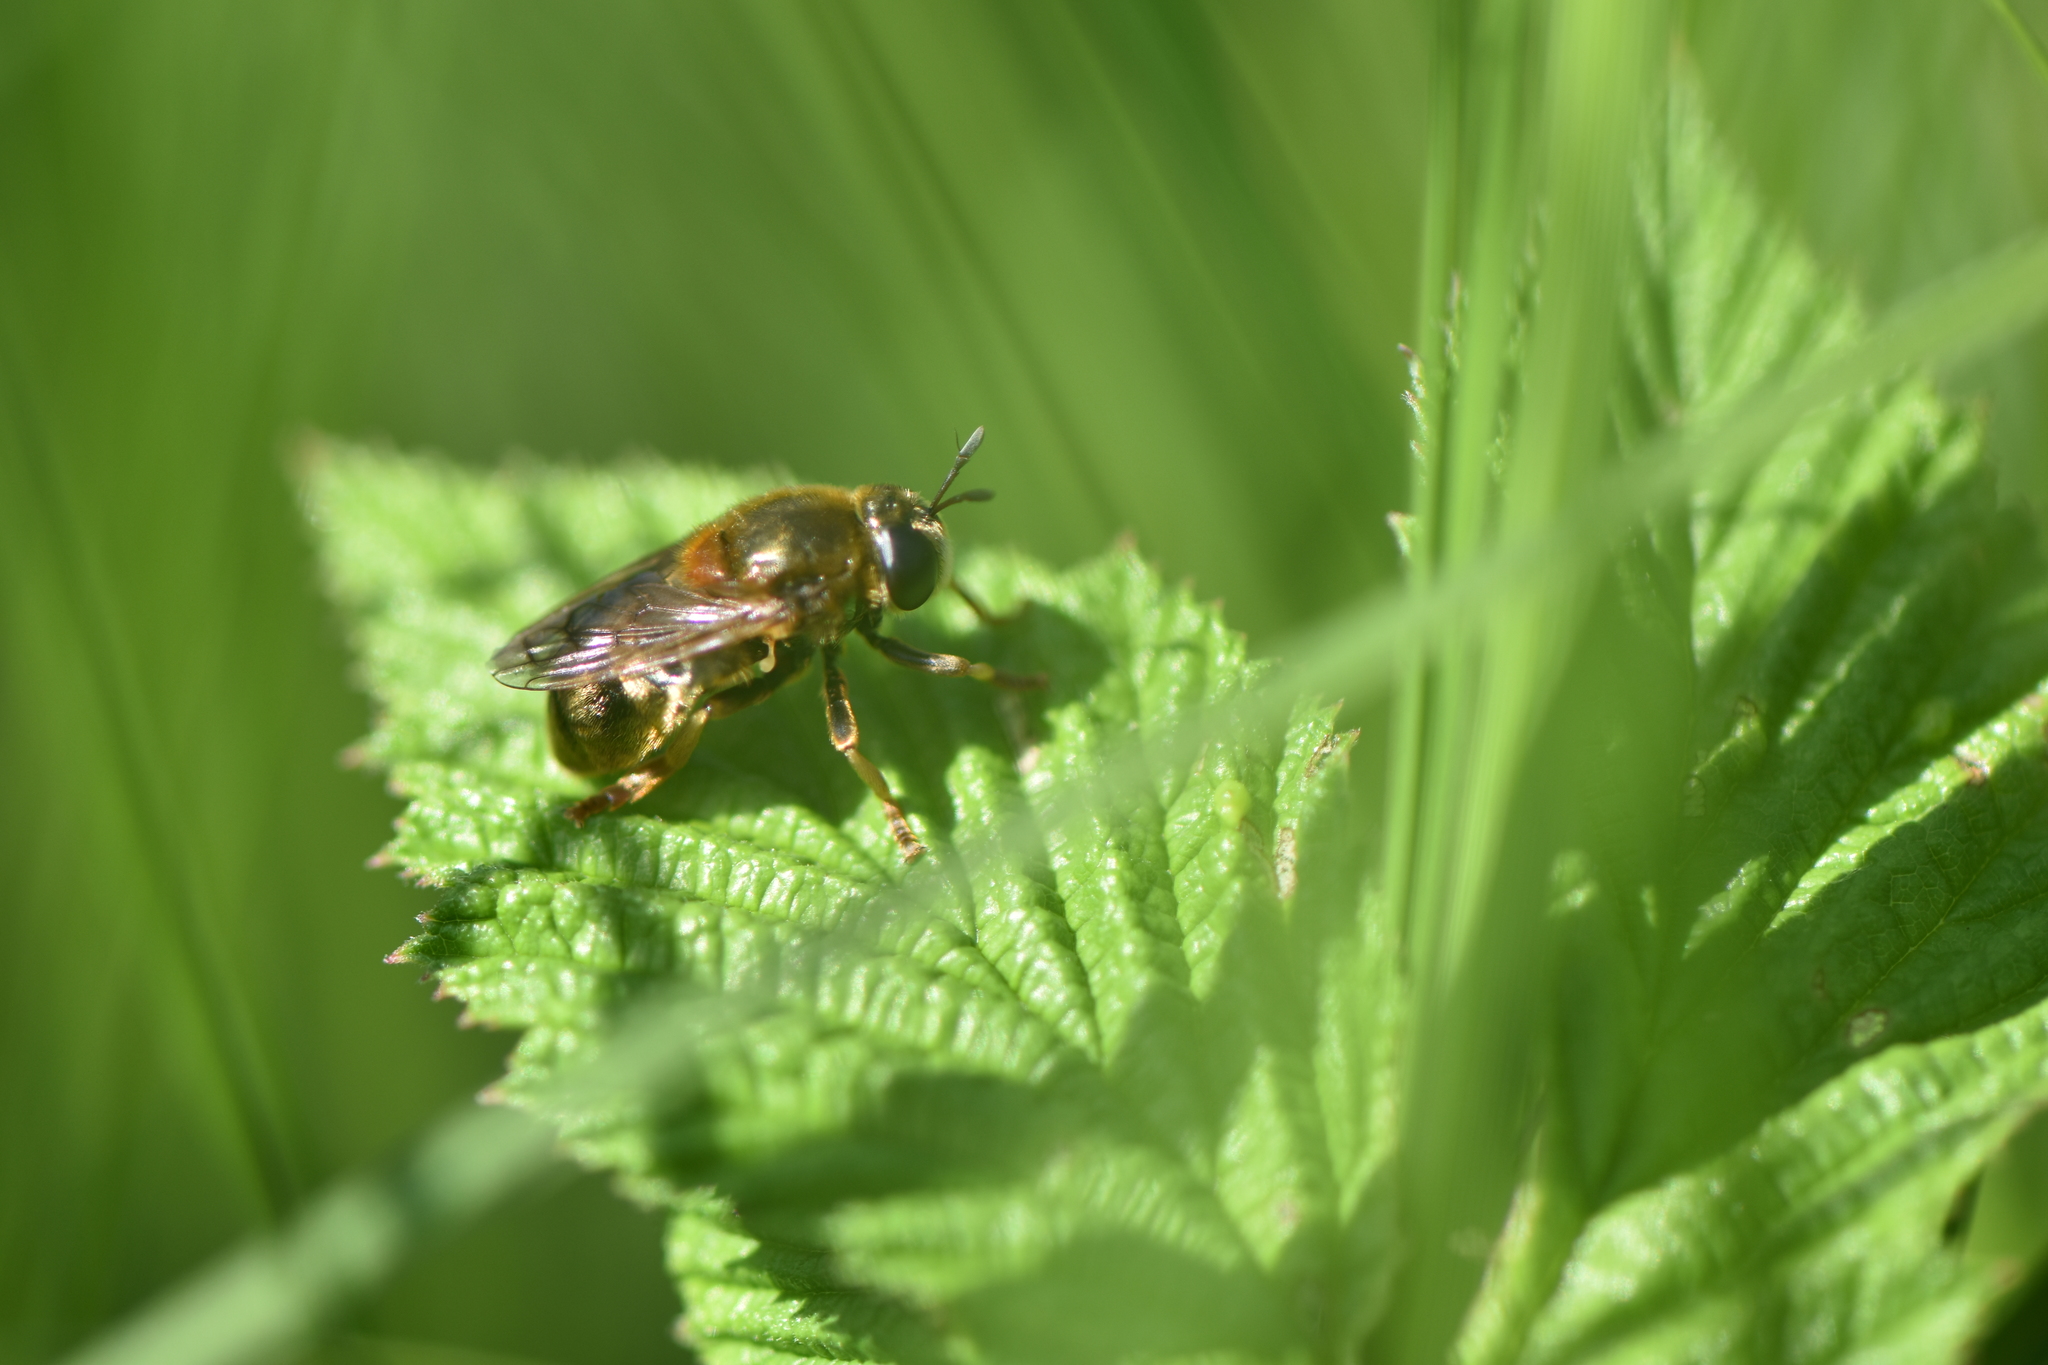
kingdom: Animalia
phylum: Arthropoda
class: Insecta
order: Diptera
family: Syrphidae
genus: Microdon
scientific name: Microdon myrmicae
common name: Bog ant fly
